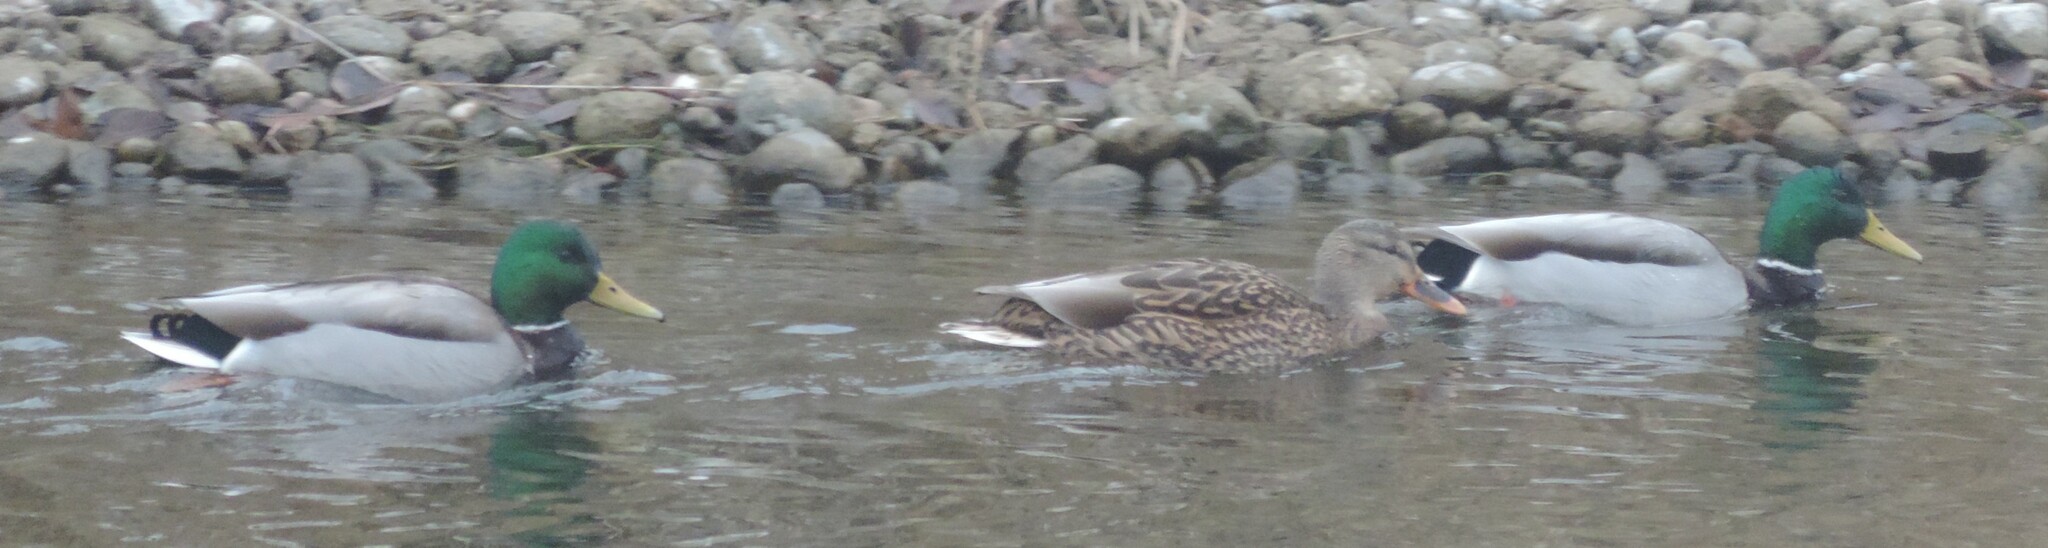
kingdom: Animalia
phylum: Chordata
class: Aves
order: Anseriformes
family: Anatidae
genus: Anas
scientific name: Anas platyrhynchos
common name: Mallard
